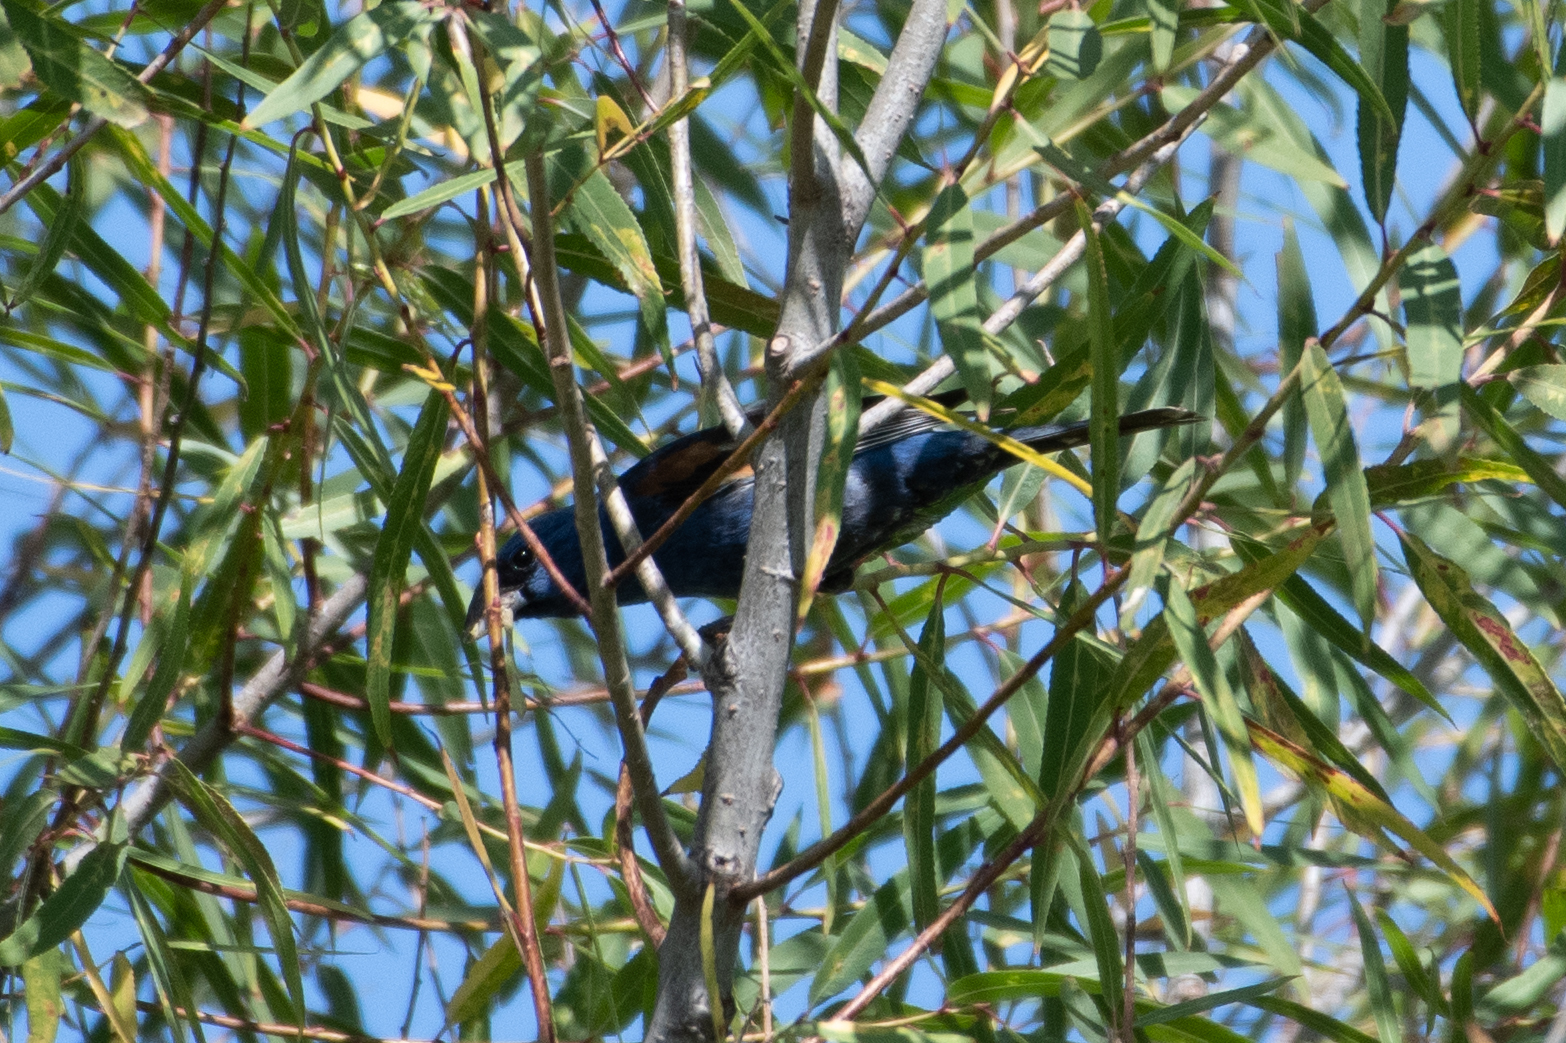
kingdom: Animalia
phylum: Chordata
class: Aves
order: Passeriformes
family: Cardinalidae
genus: Passerina
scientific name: Passerina caerulea
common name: Blue grosbeak
